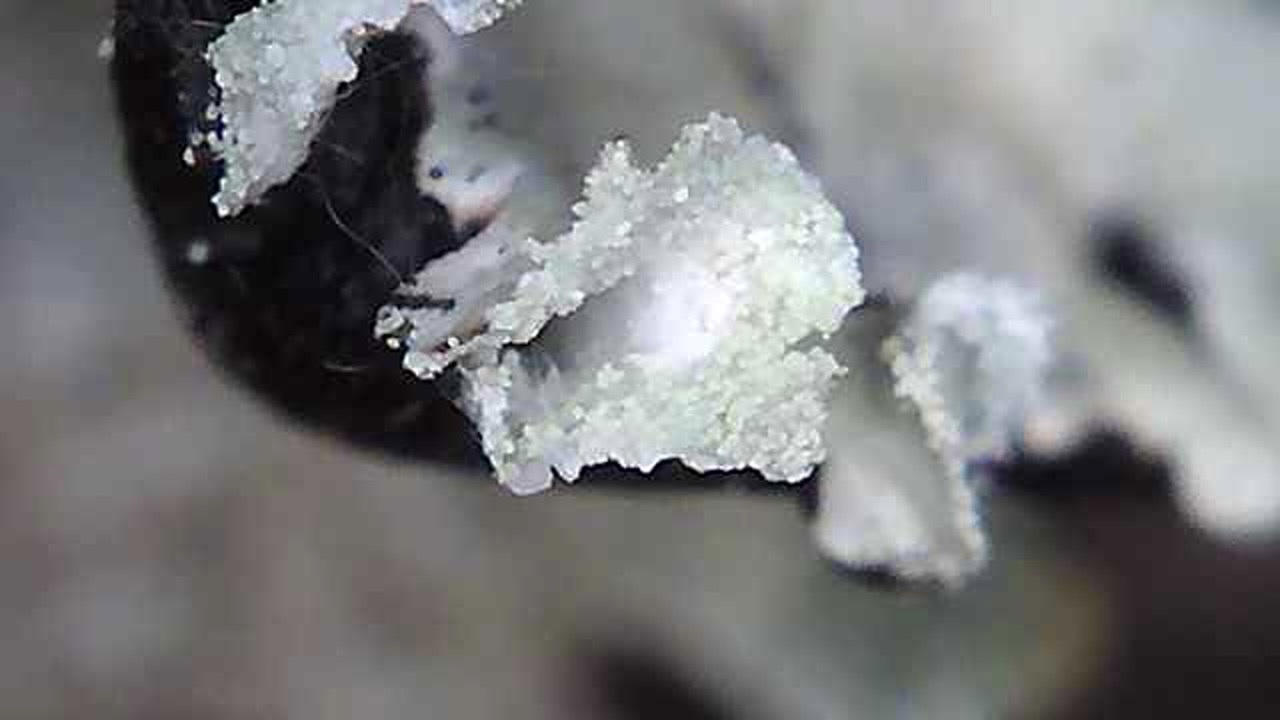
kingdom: Fungi
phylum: Ascomycota
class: Lecanoromycetes
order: Lecanorales
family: Parmeliaceae
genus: Hypogymnia
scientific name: Hypogymnia physodes
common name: Dark crottle
